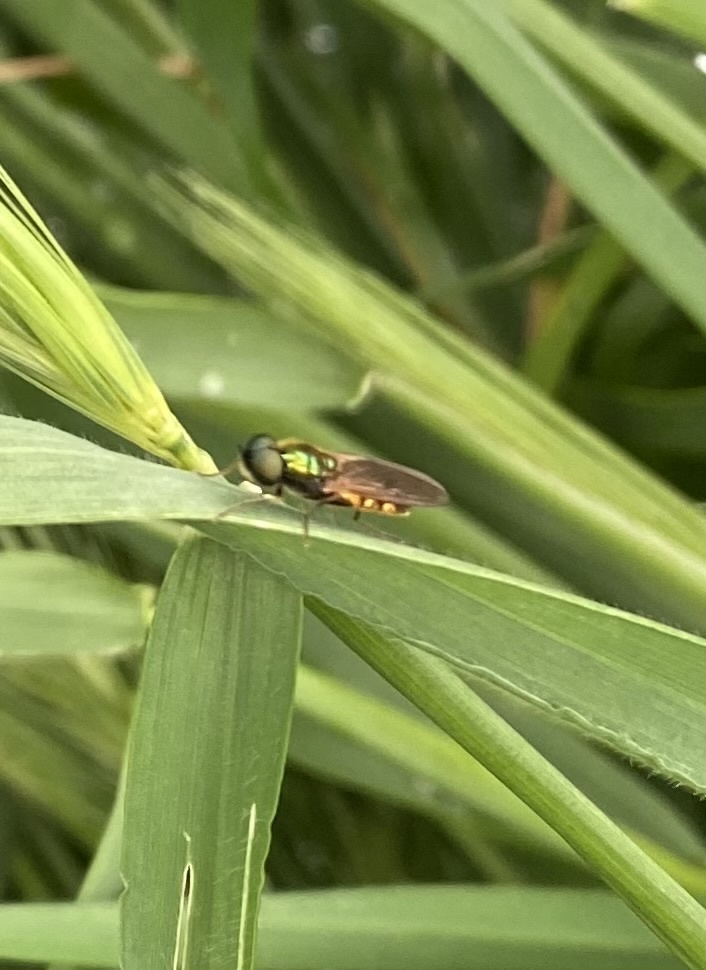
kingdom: Animalia
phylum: Arthropoda
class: Insecta
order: Diptera
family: Stratiomyidae
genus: Chloromyia
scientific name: Chloromyia formosa
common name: Soldier fly
